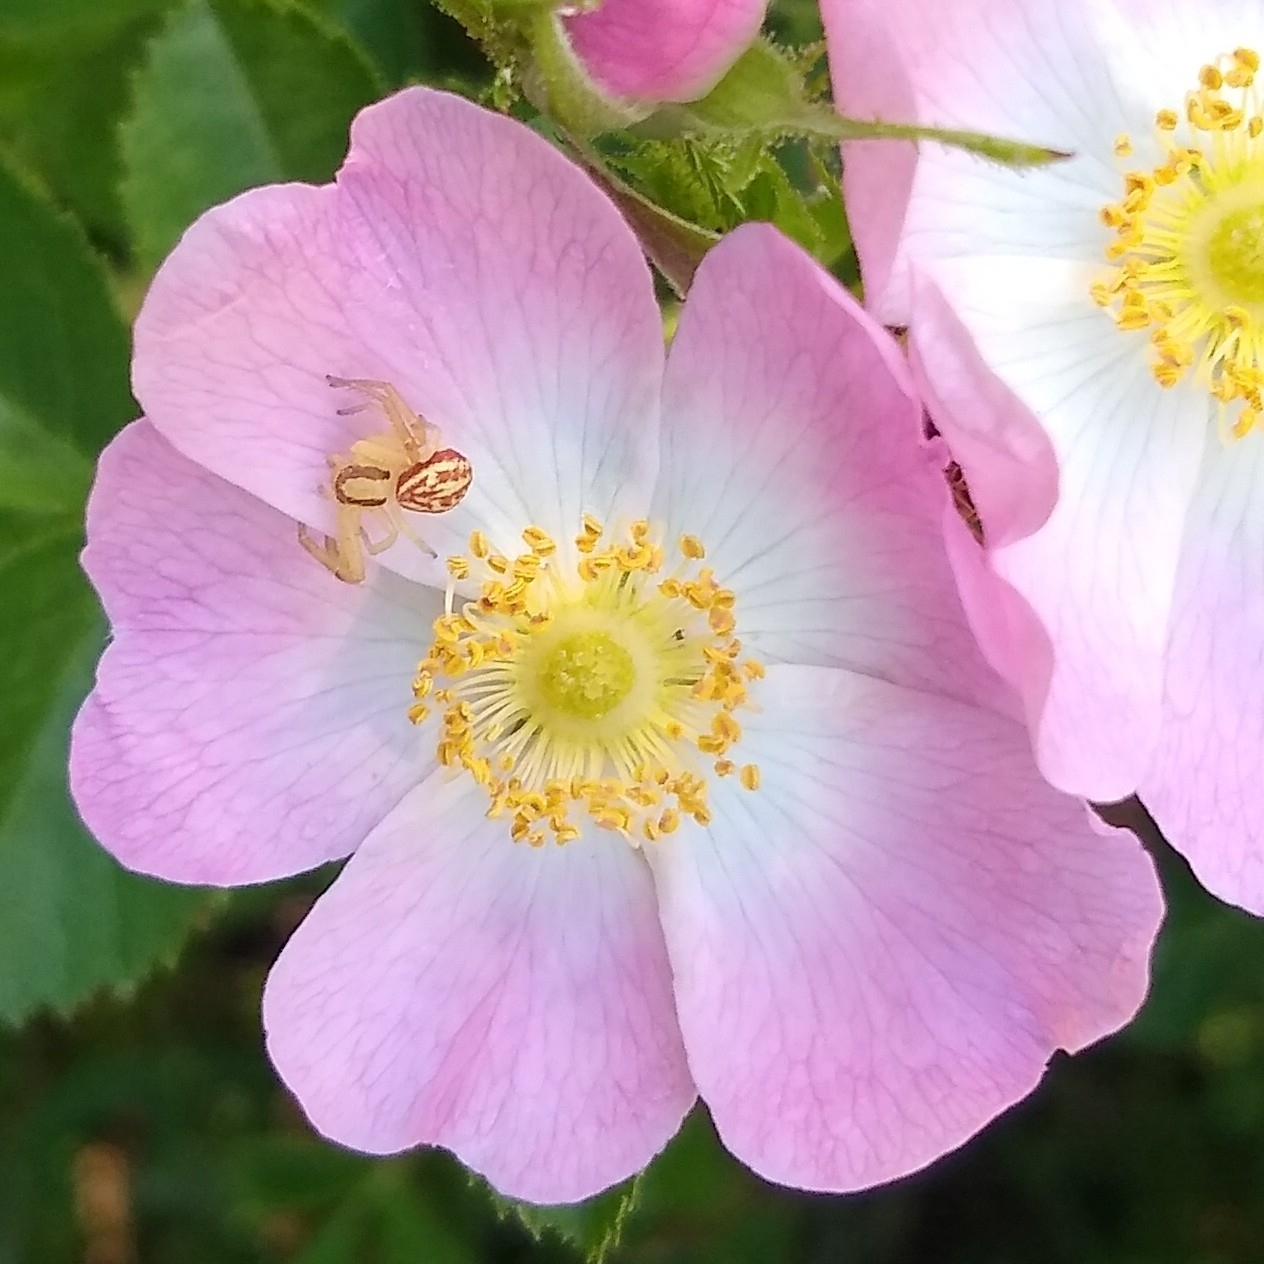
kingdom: Animalia
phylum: Arthropoda
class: Arachnida
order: Araneae
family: Thomisidae
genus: Misumenops
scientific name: Misumenops
